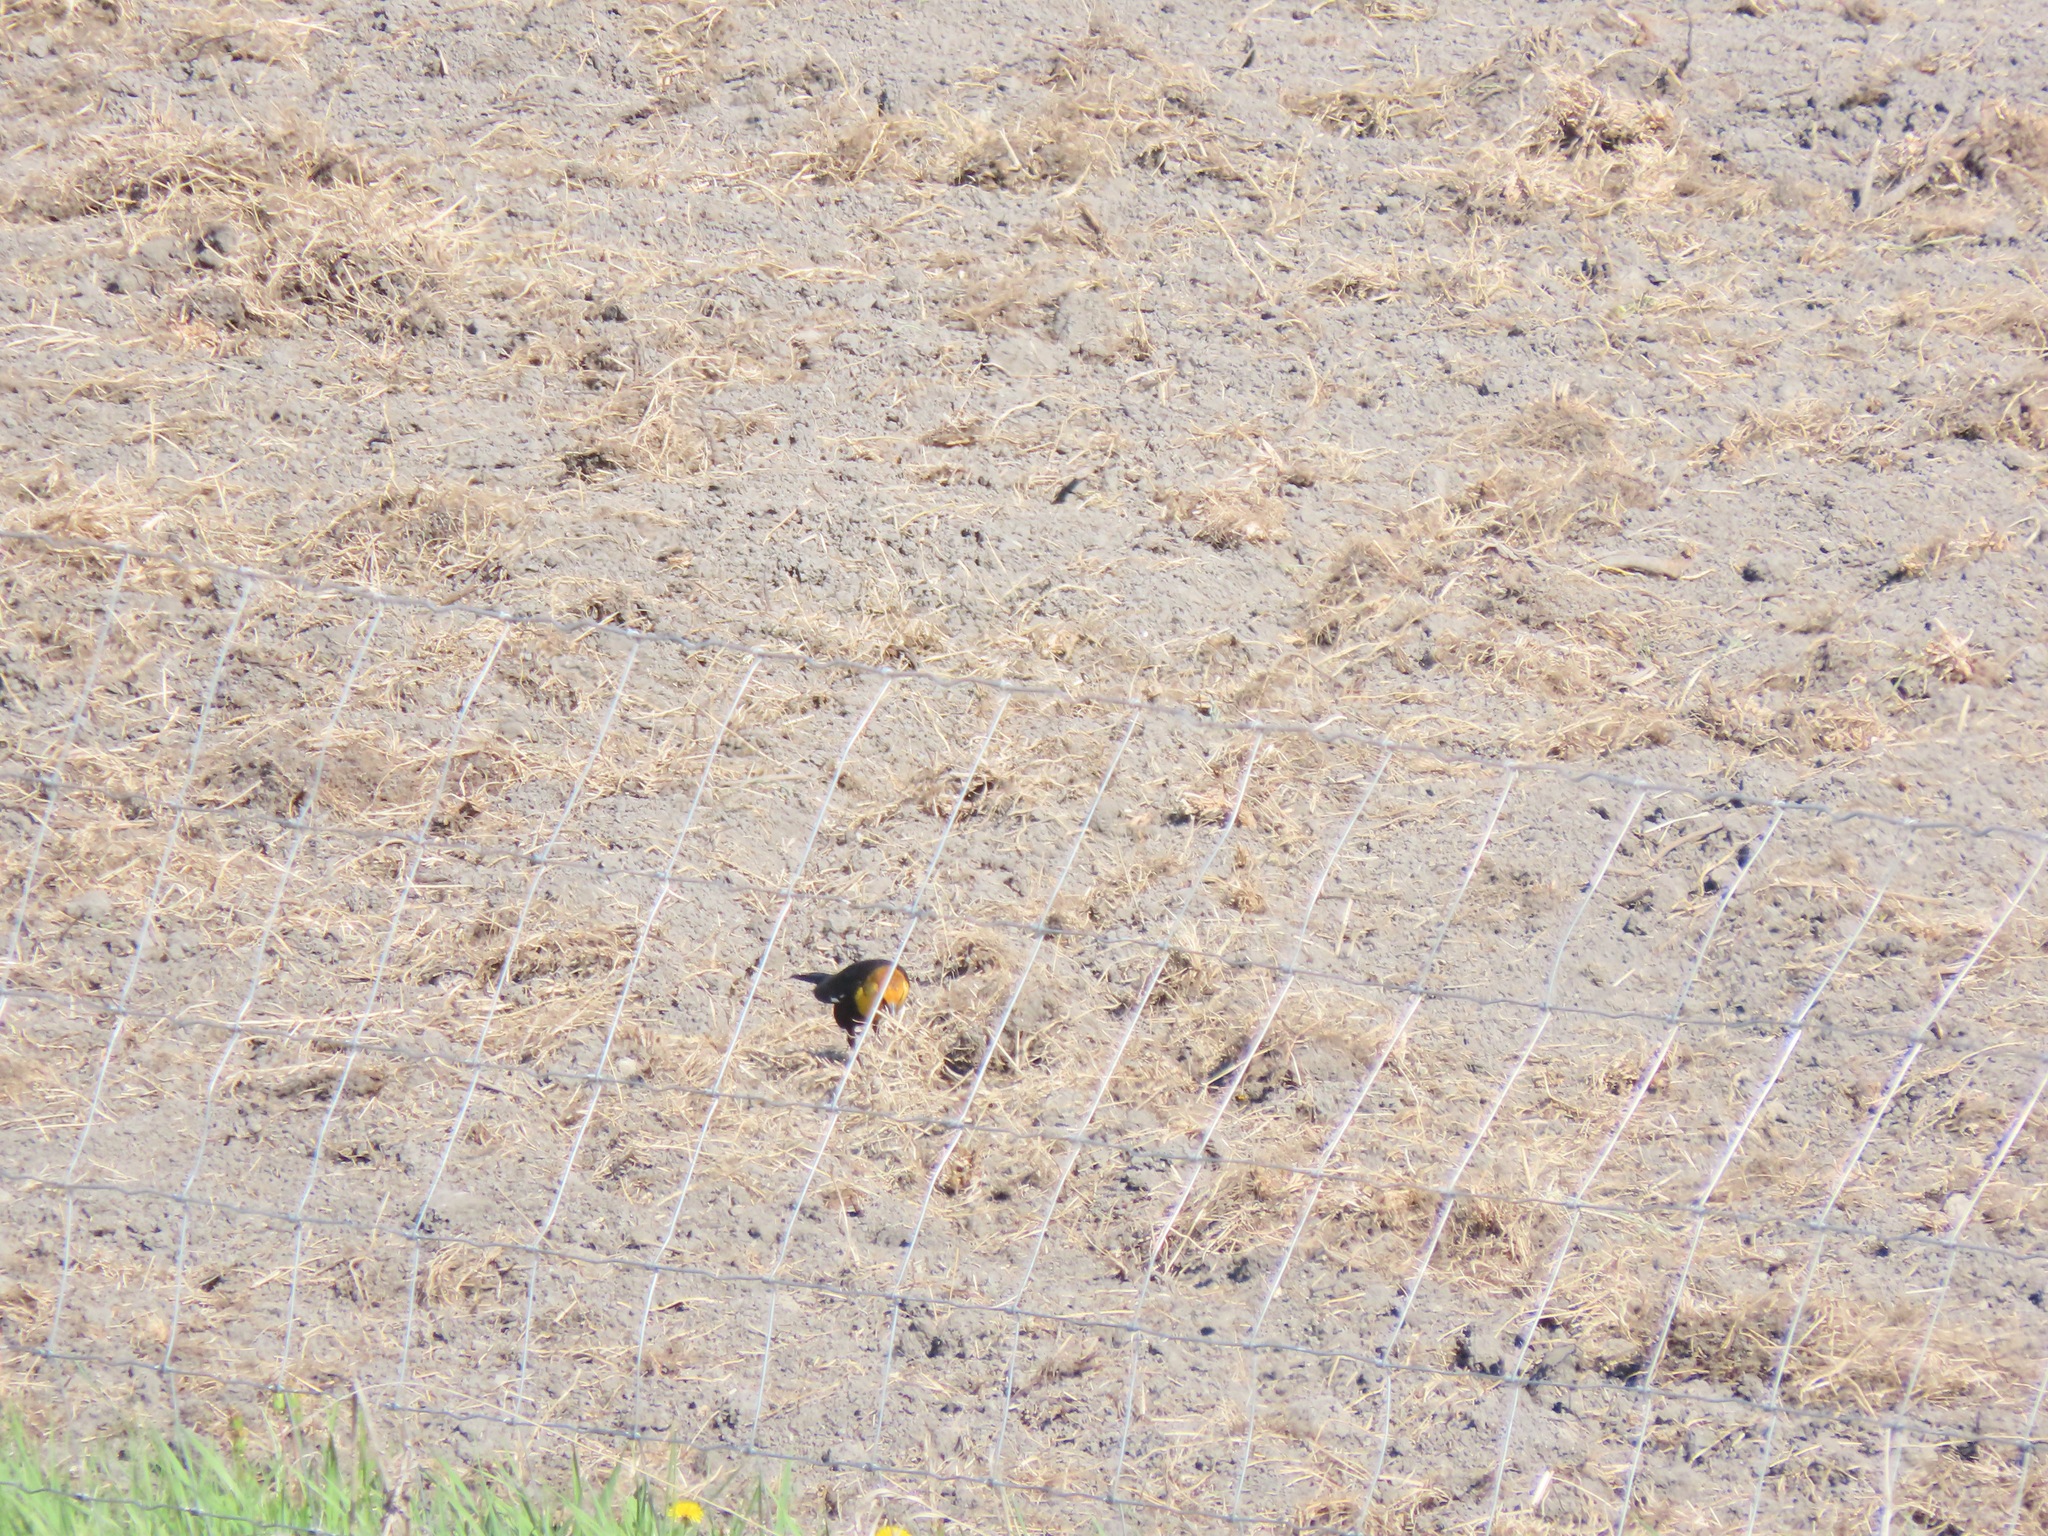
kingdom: Animalia
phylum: Chordata
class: Aves
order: Passeriformes
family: Icteridae
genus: Xanthocephalus
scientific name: Xanthocephalus xanthocephalus
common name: Yellow-headed blackbird
